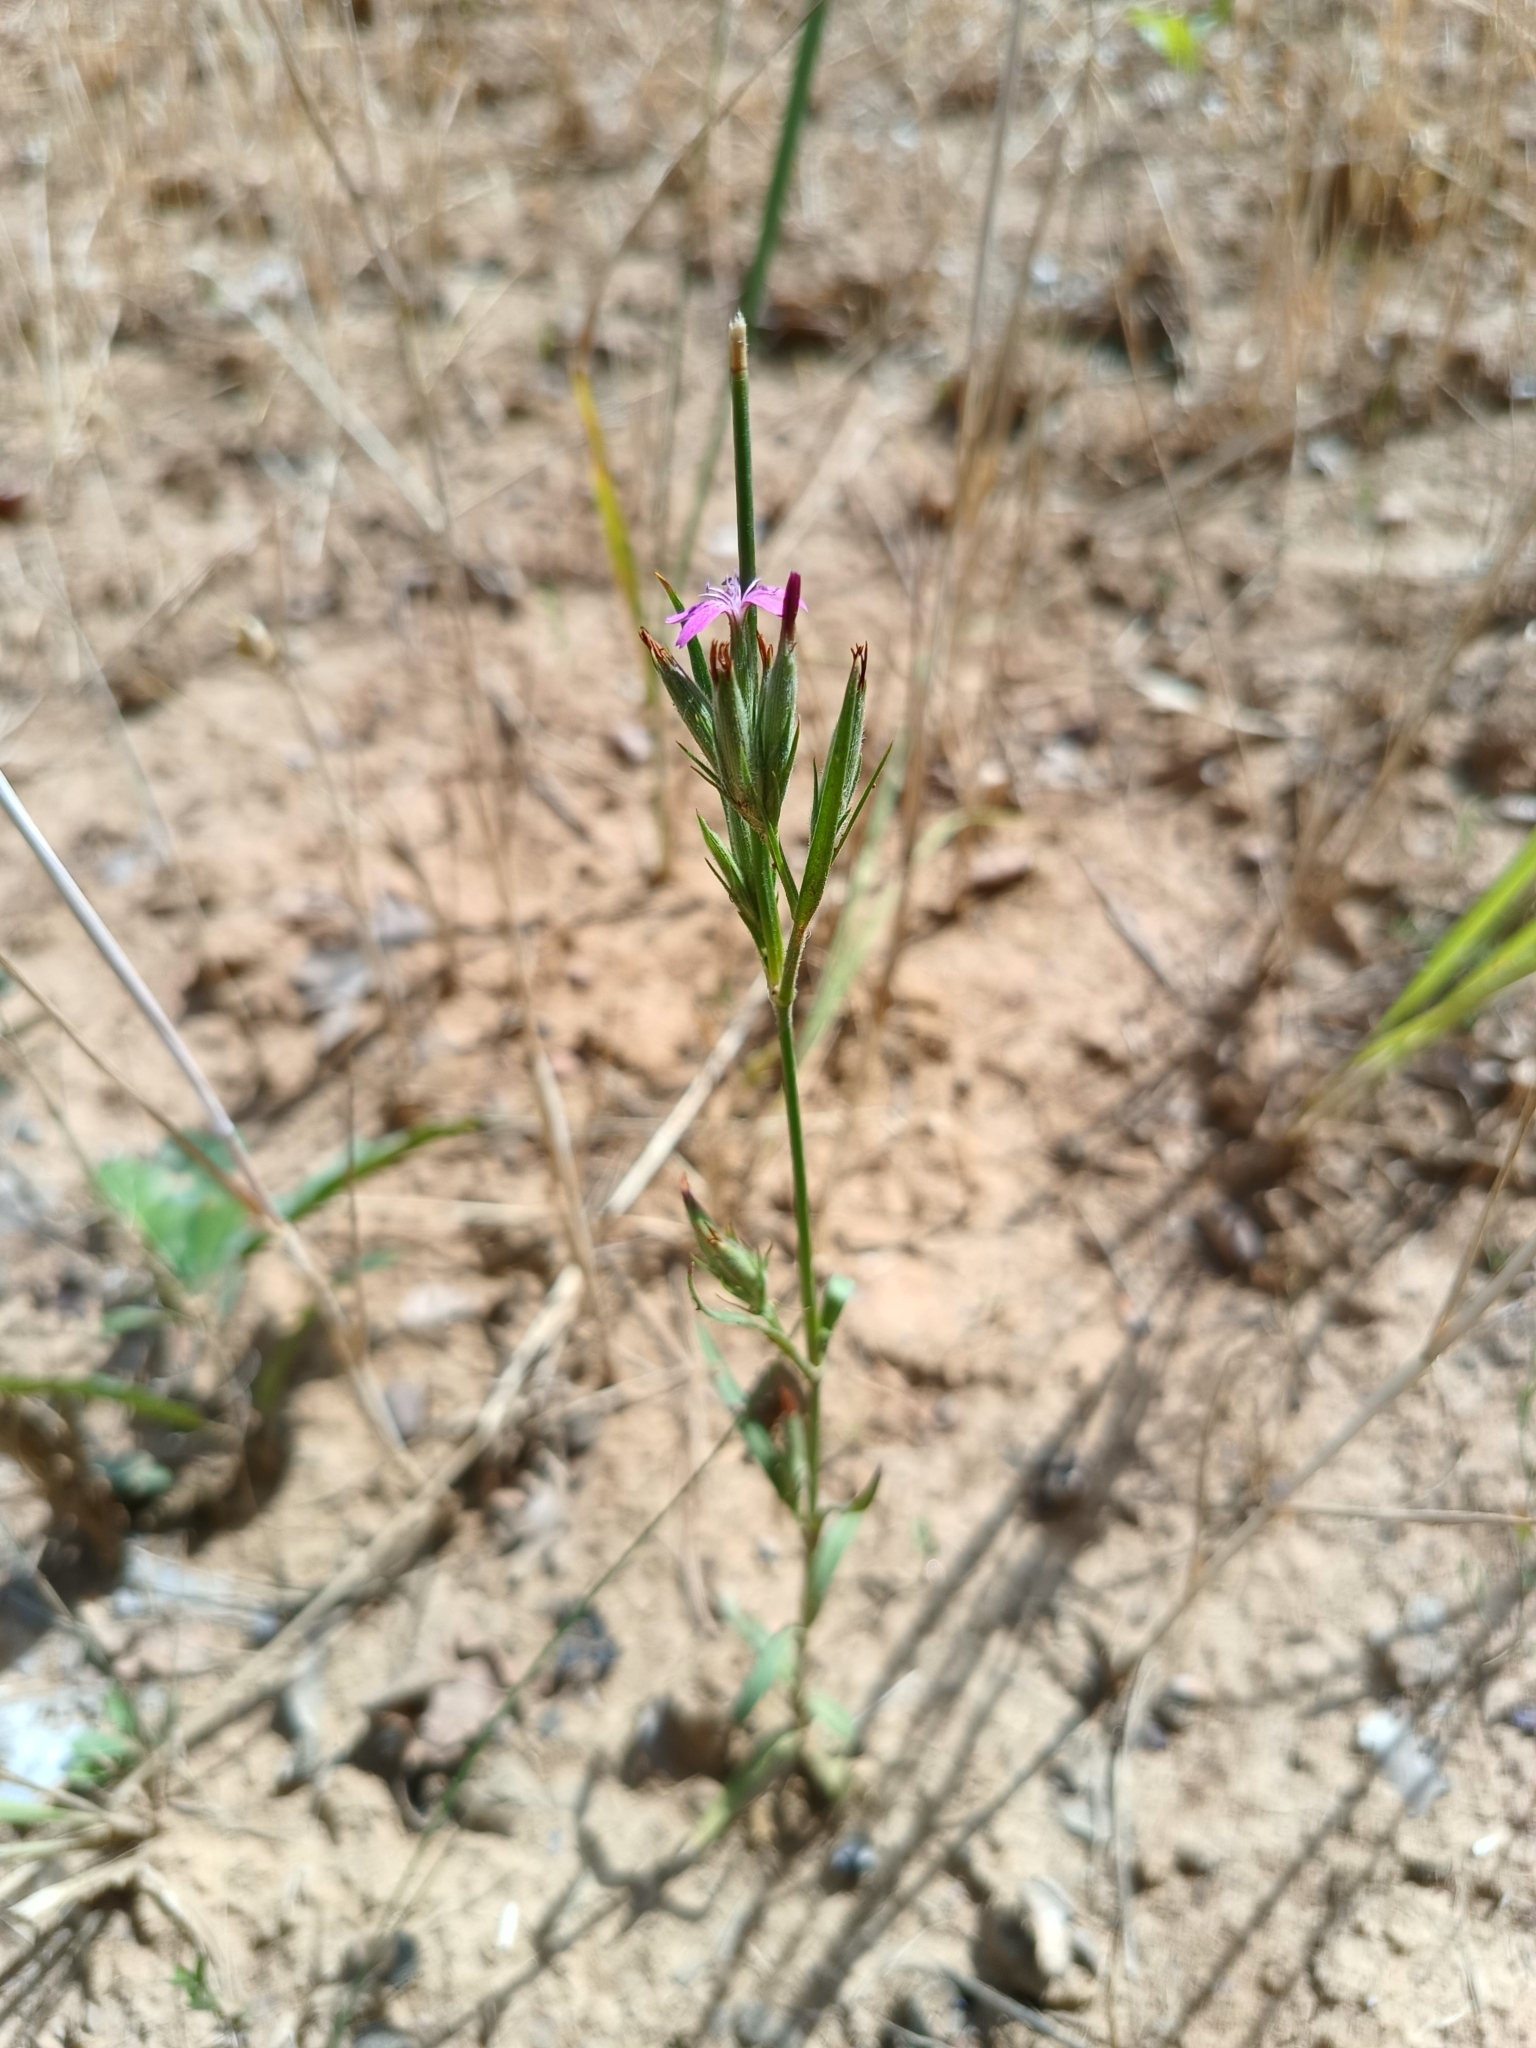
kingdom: Plantae
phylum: Tracheophyta
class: Magnoliopsida
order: Caryophyllales
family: Caryophyllaceae
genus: Dianthus
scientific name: Dianthus armeria
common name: Deptford pink
